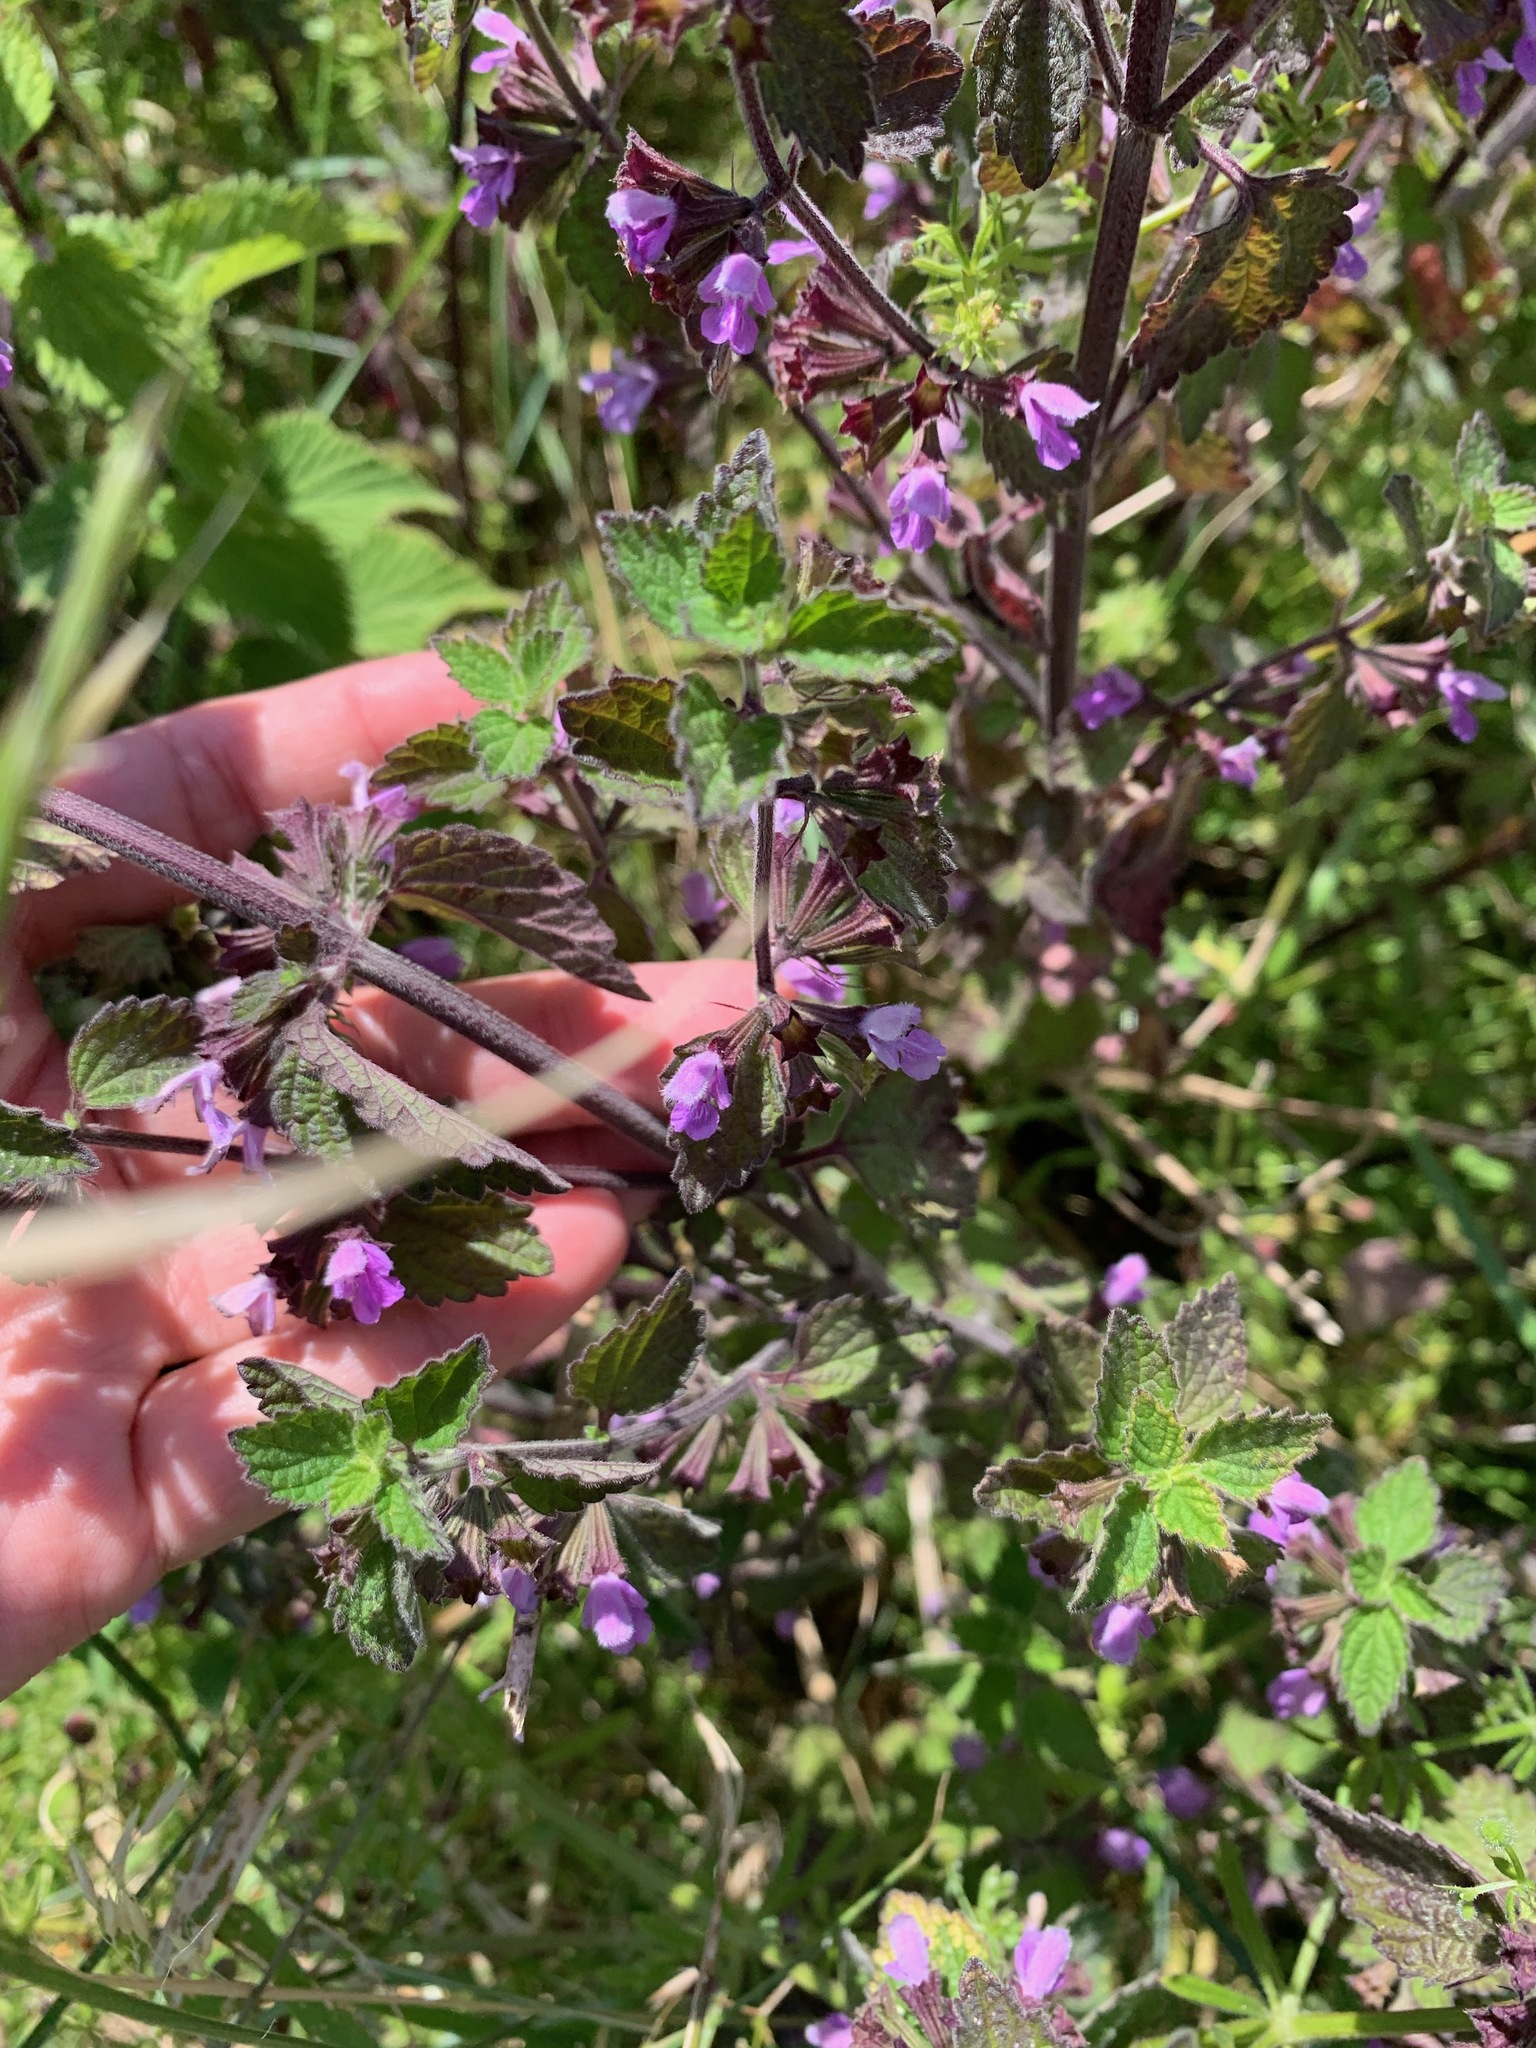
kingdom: Plantae
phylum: Tracheophyta
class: Magnoliopsida
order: Lamiales
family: Lamiaceae
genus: Ballota
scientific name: Ballota nigra
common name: Black horehound
